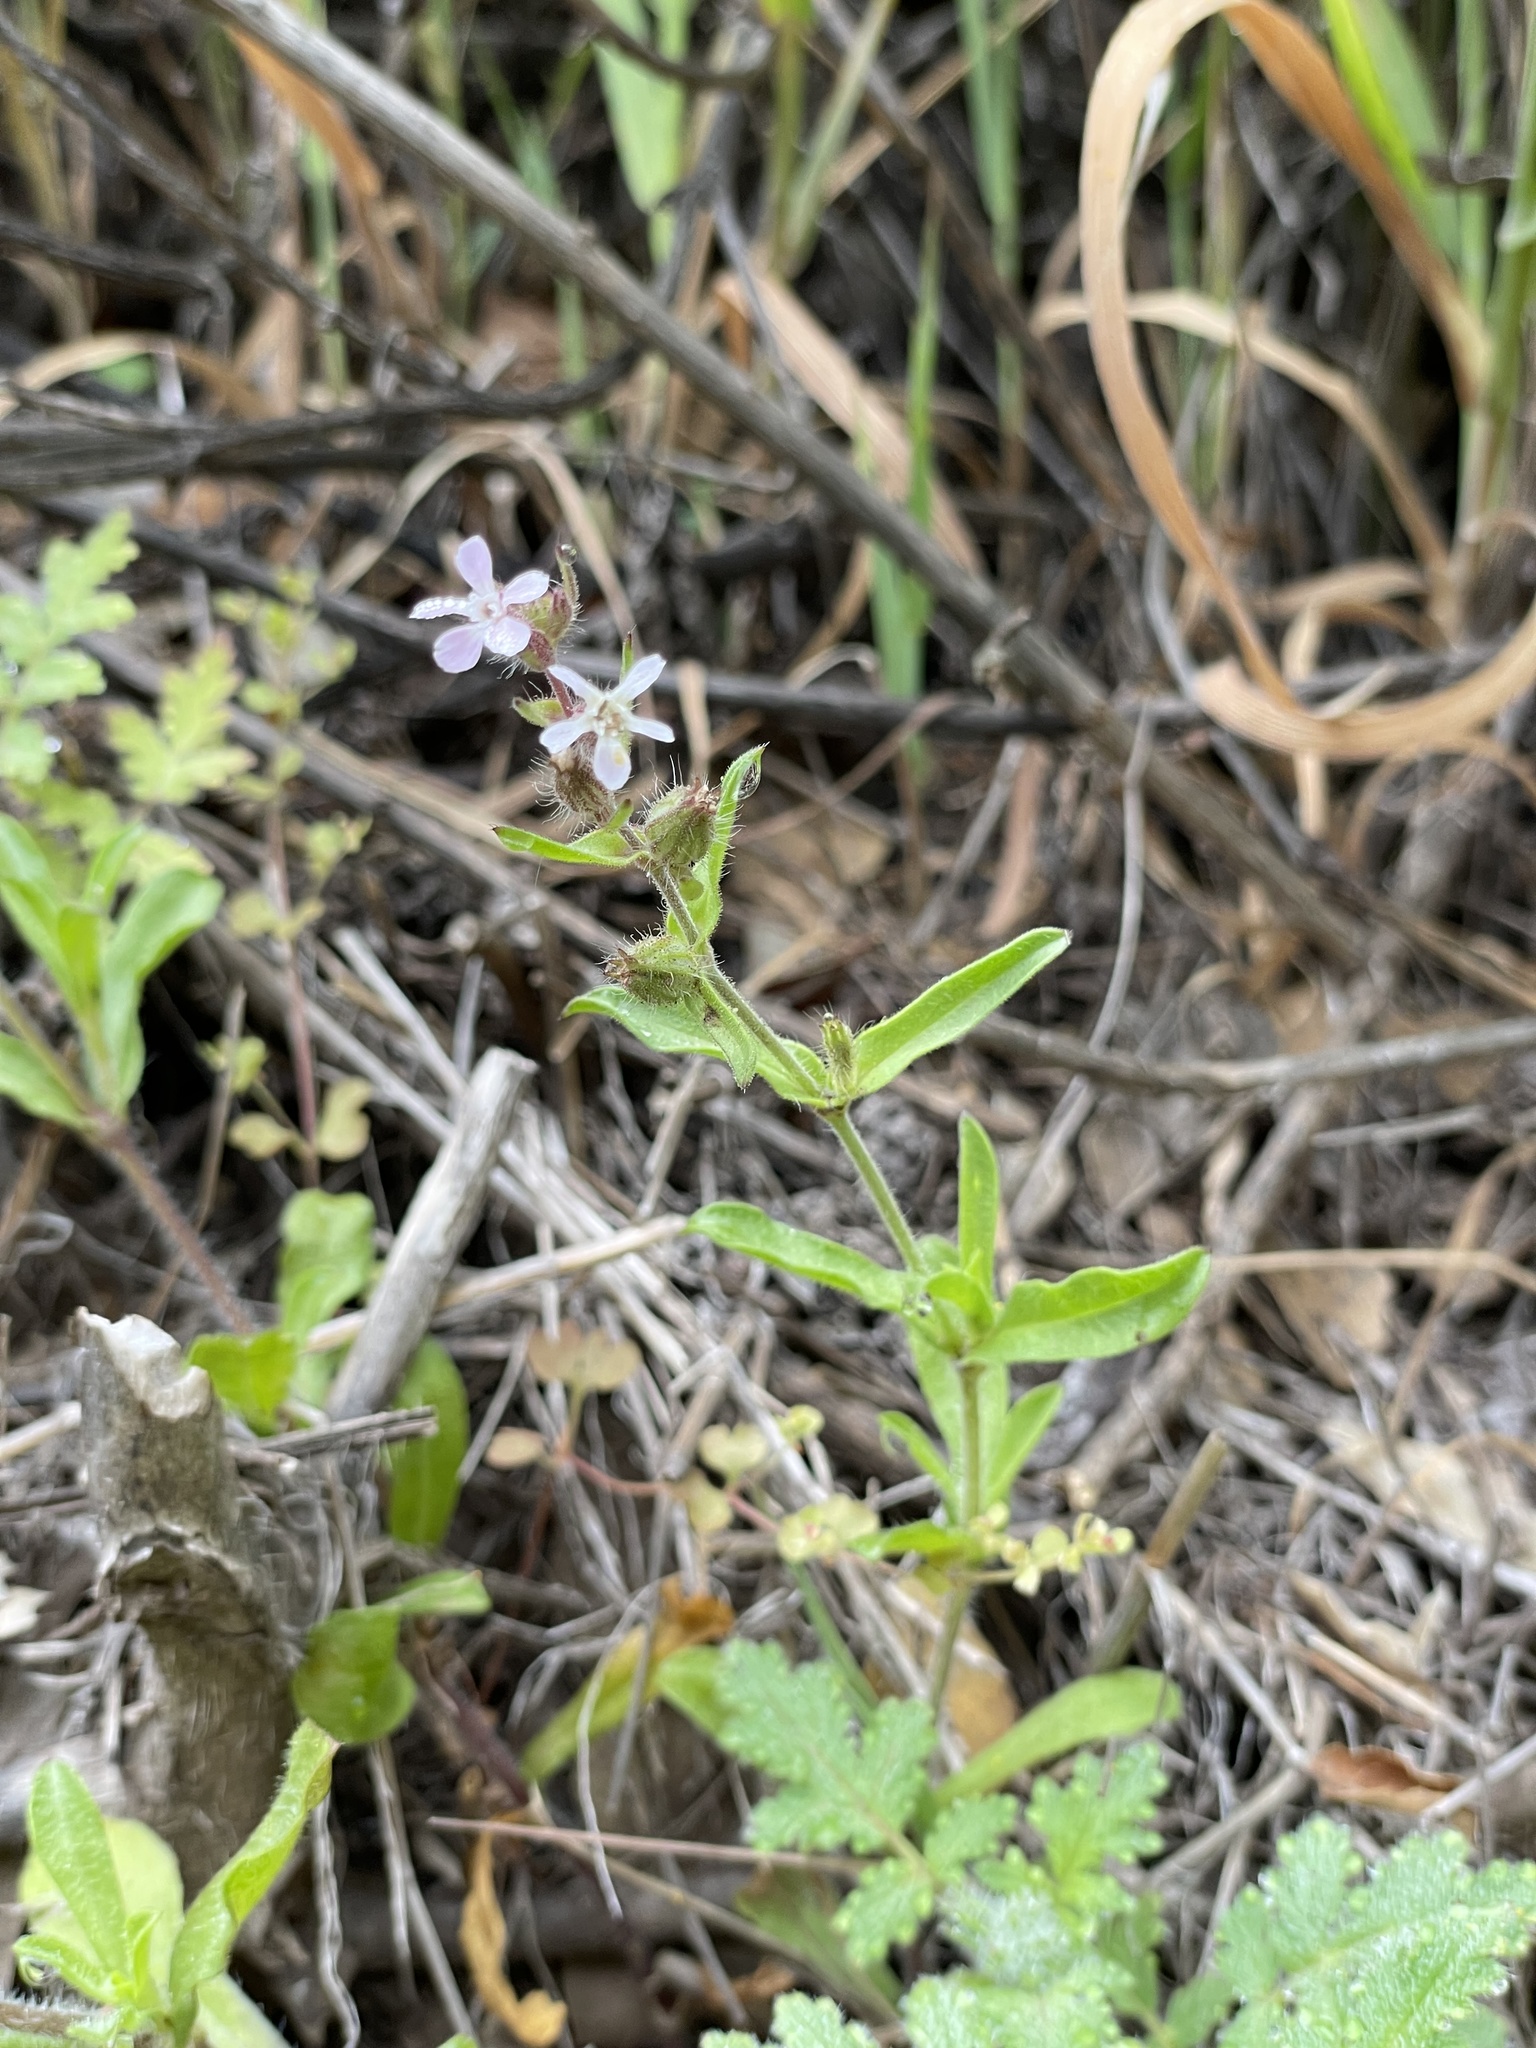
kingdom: Plantae
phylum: Tracheophyta
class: Magnoliopsida
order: Caryophyllales
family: Caryophyllaceae
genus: Silene
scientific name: Silene gallica
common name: Small-flowered catchfly
